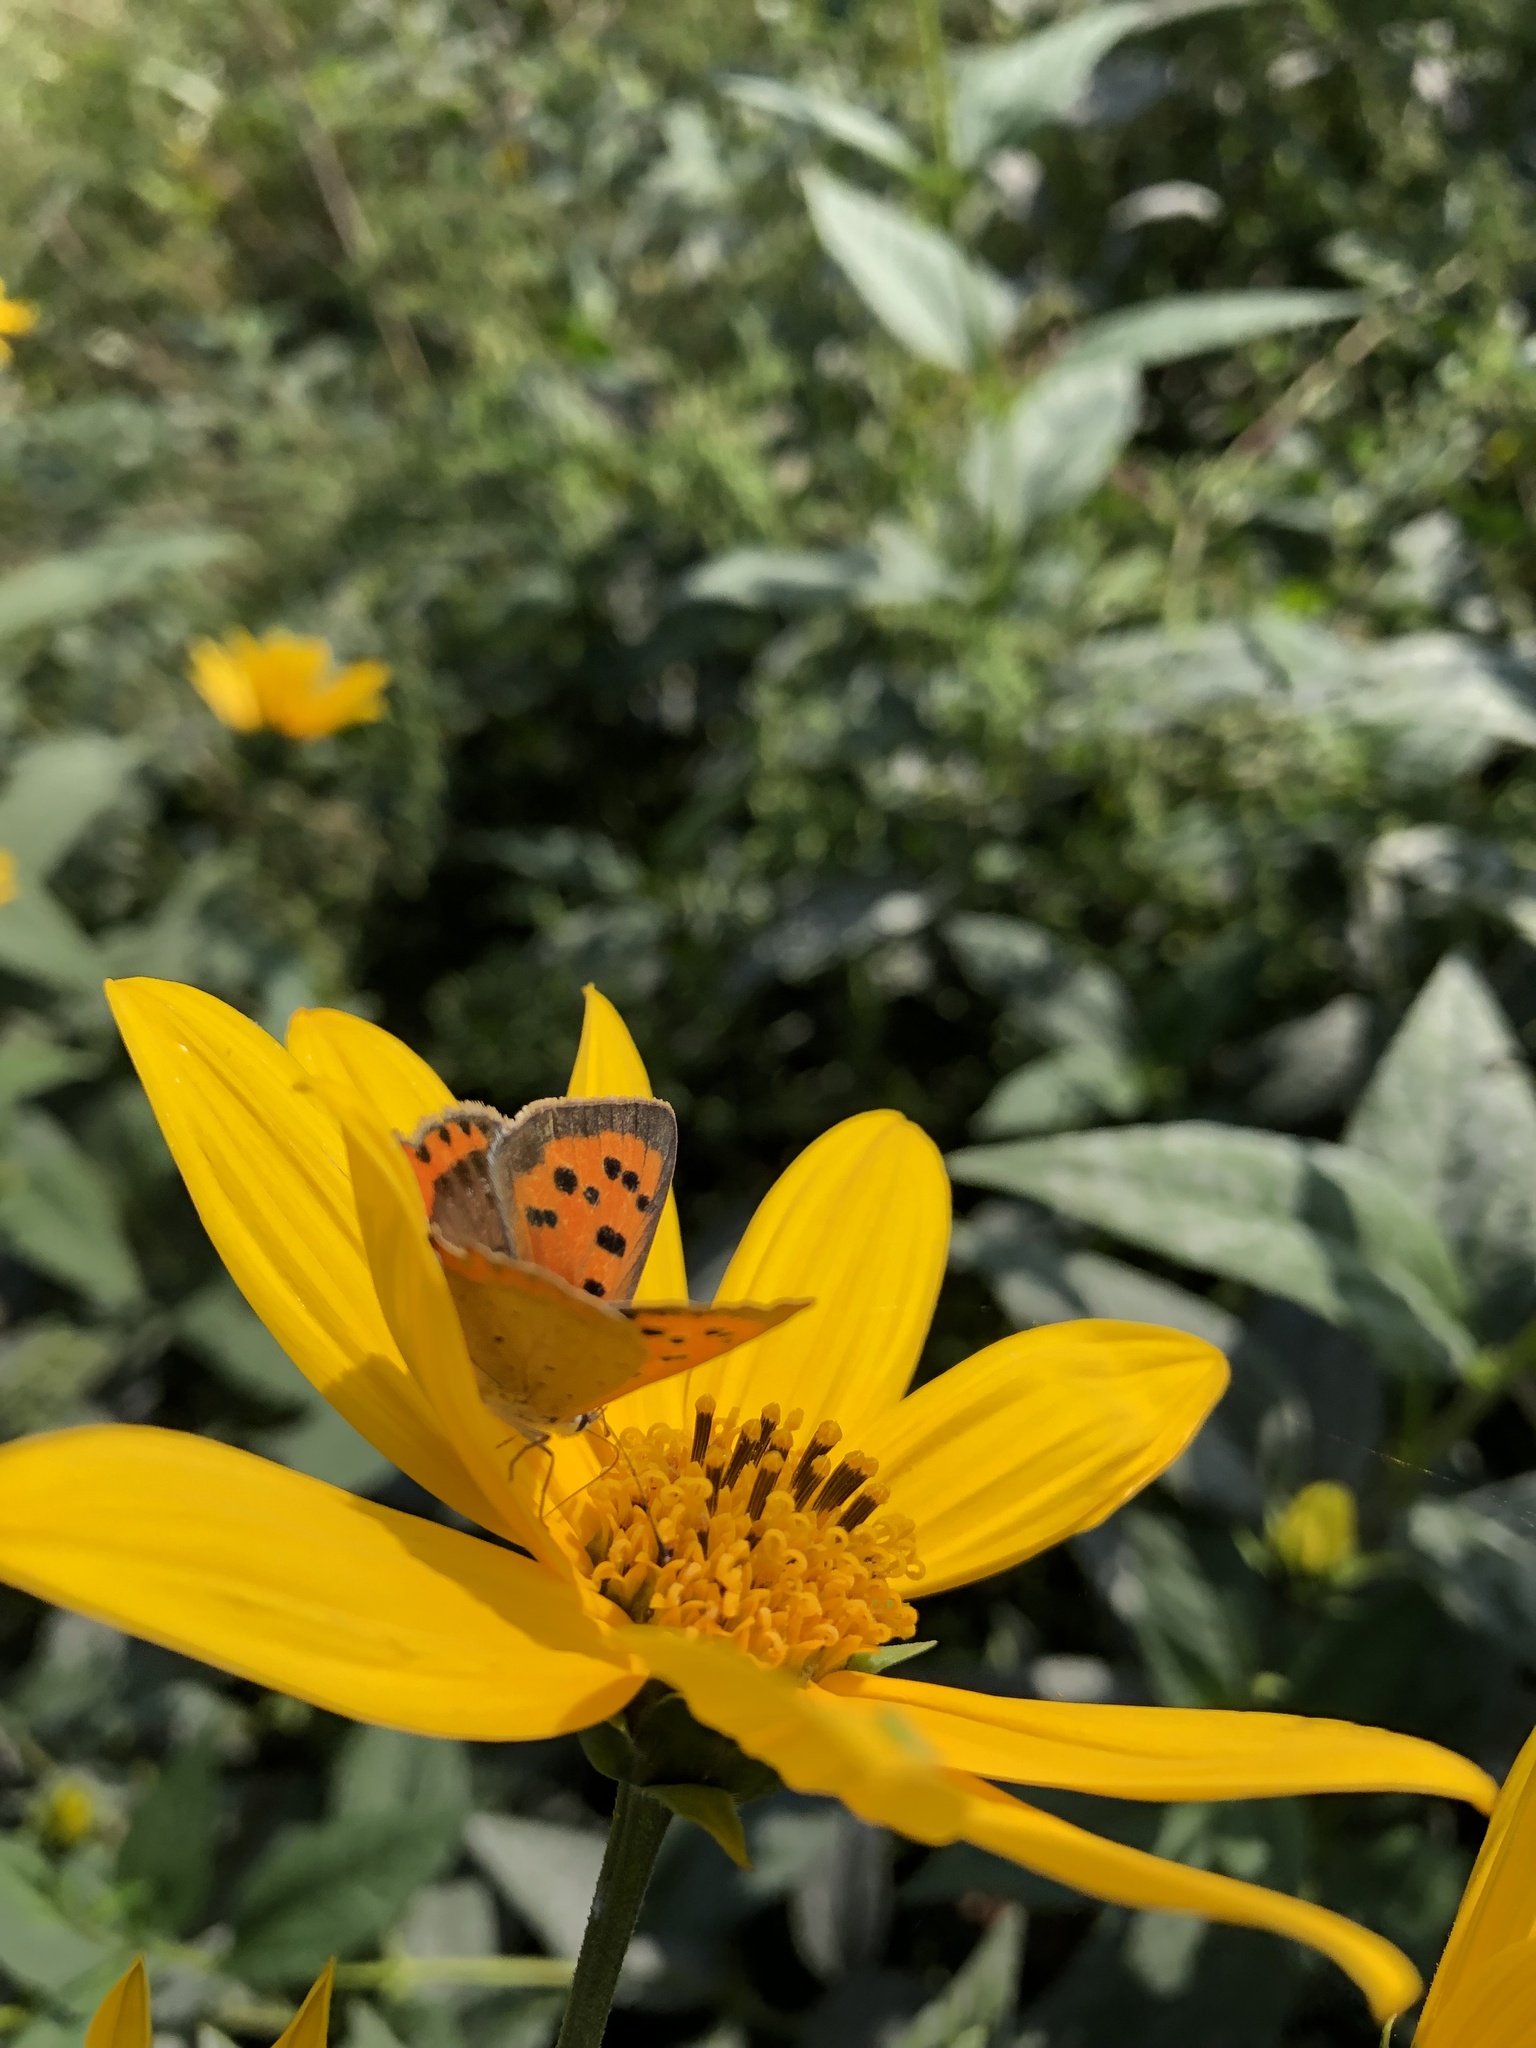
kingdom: Animalia
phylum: Arthropoda
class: Insecta
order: Lepidoptera
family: Lycaenidae
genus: Lycaena
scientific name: Lycaena phlaeas
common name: Small copper
